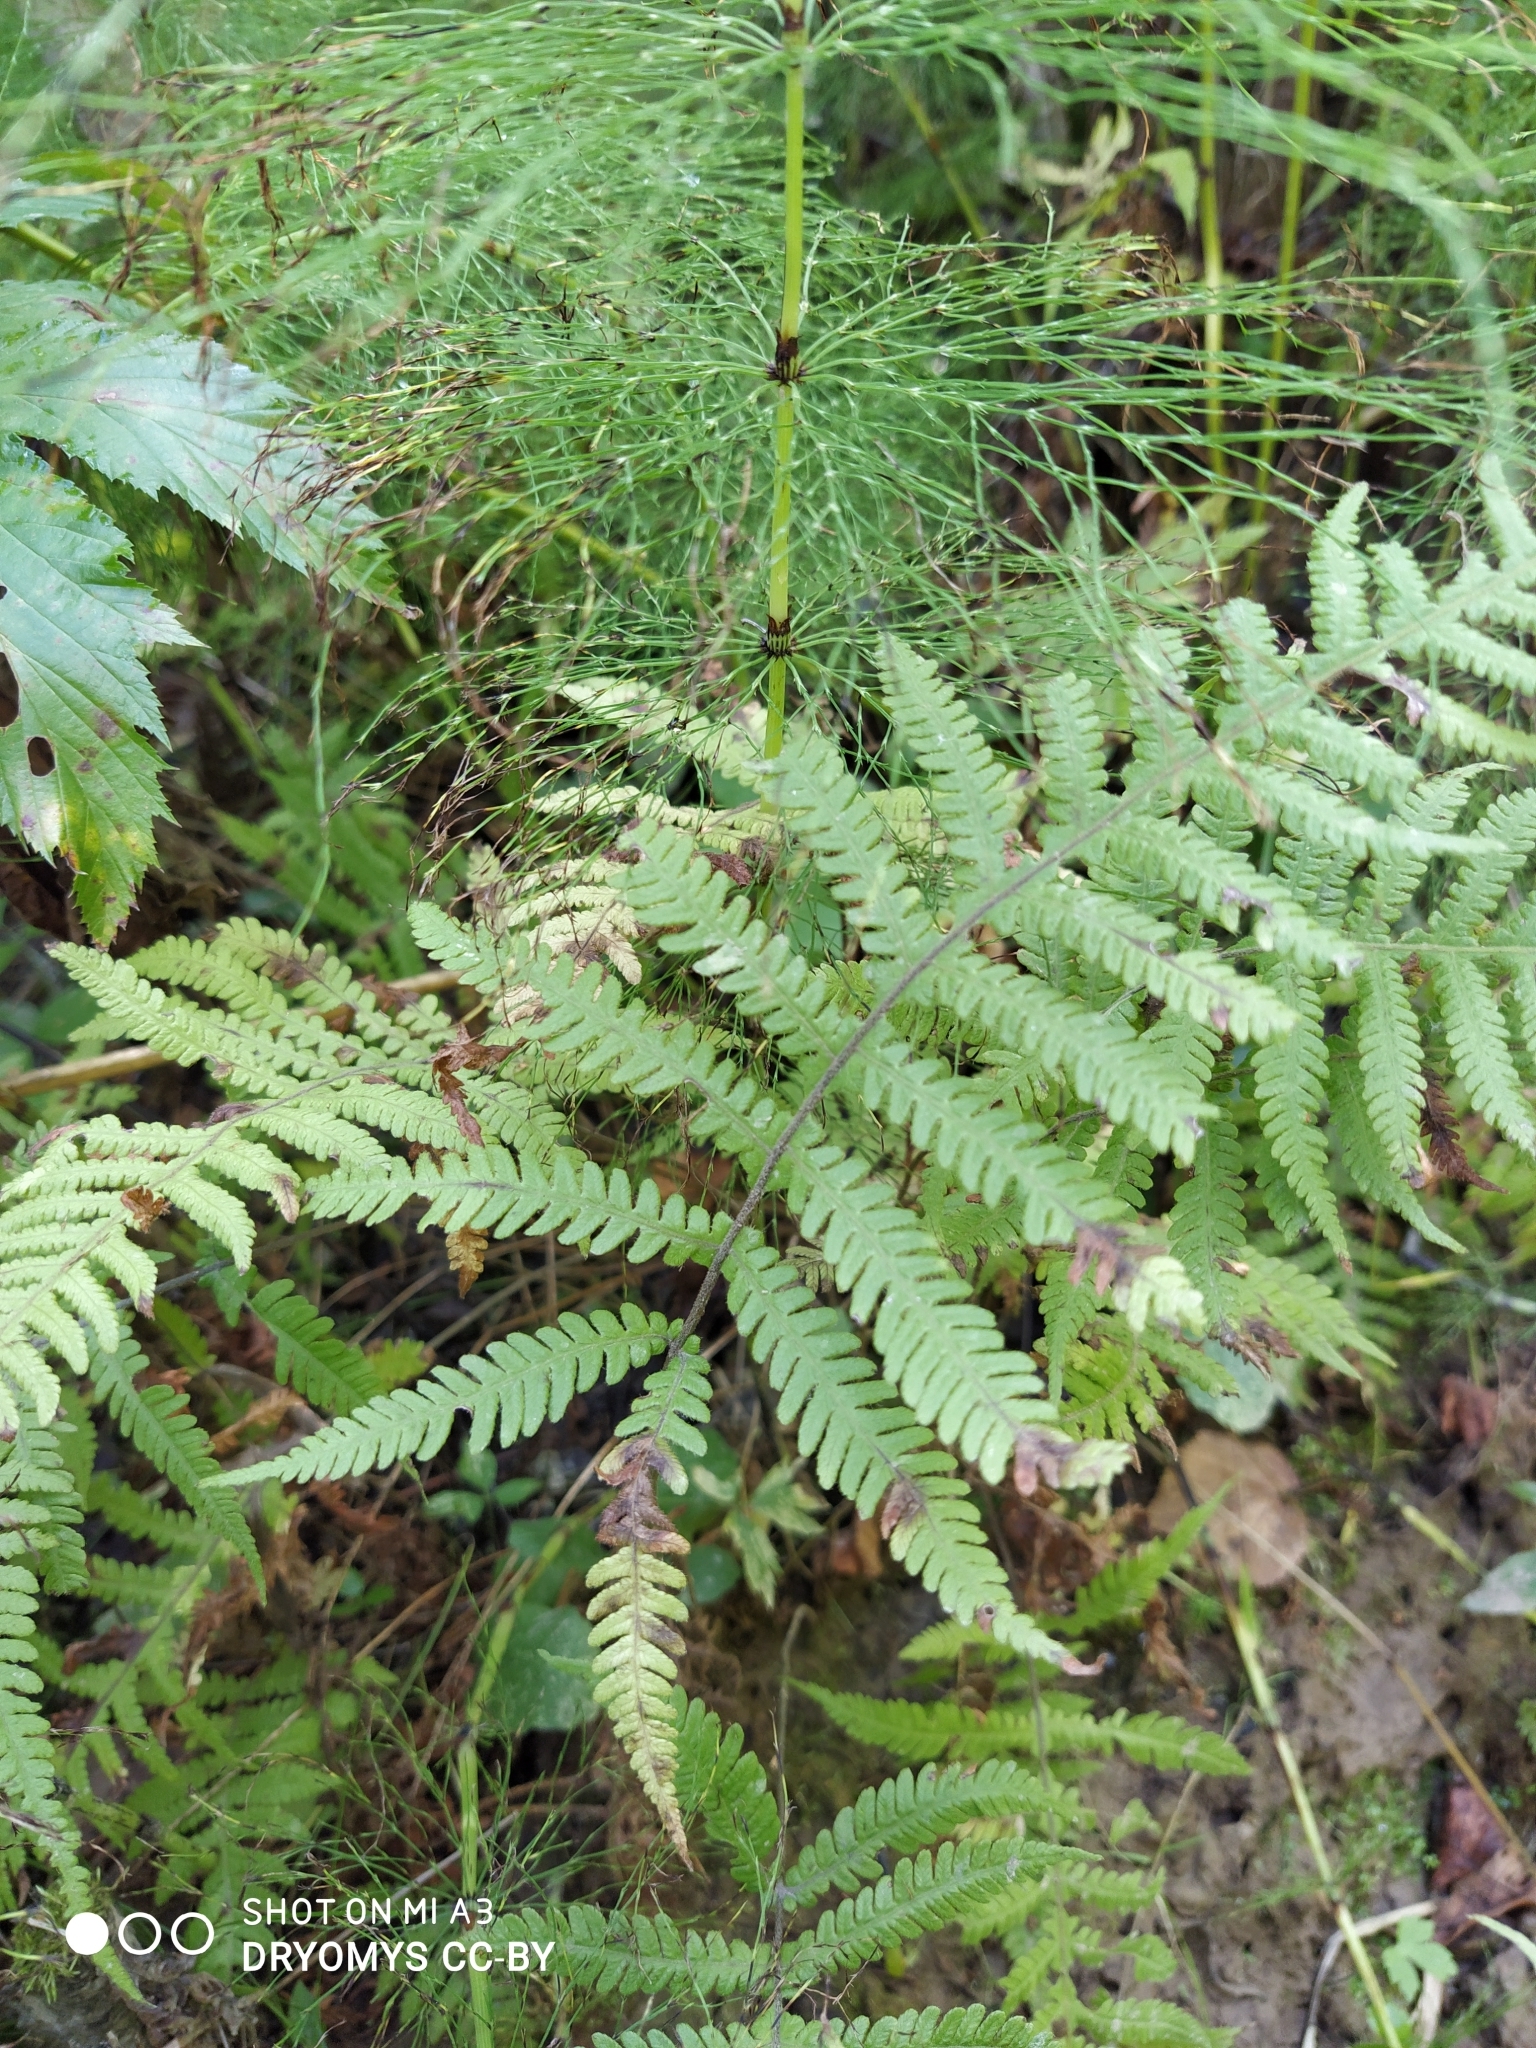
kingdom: Plantae
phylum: Tracheophyta
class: Polypodiopsida
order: Polypodiales
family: Thelypteridaceae
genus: Phegopteris
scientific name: Phegopteris connectilis
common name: Beech fern
